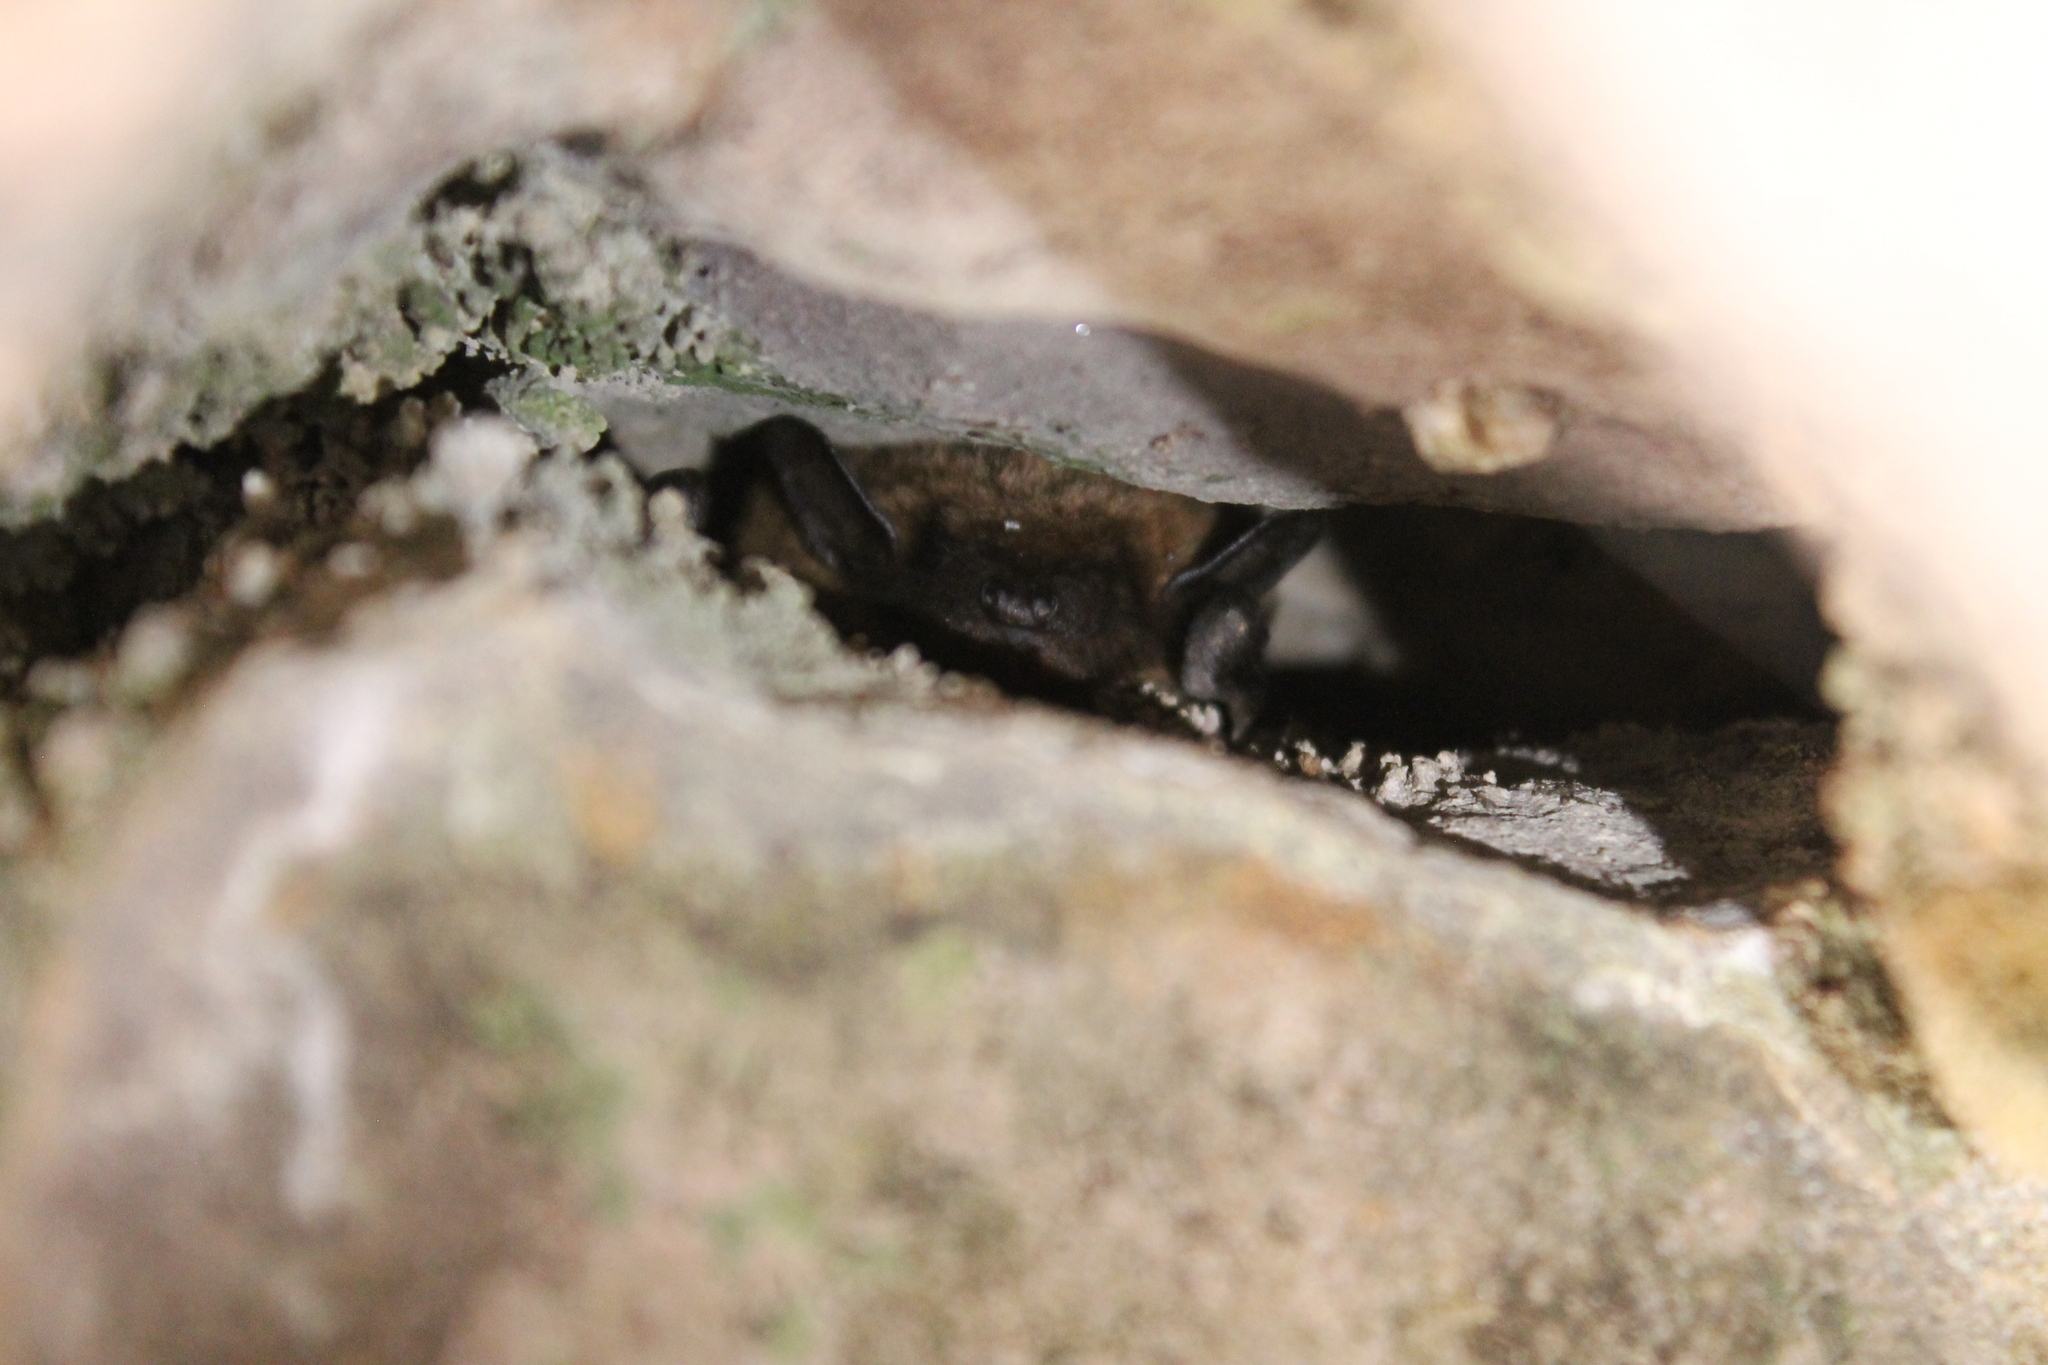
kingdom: Animalia
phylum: Chordata
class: Mammalia
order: Chiroptera
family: Vespertilionidae
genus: Eptesicus
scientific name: Eptesicus fuscus
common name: Big brown bat
